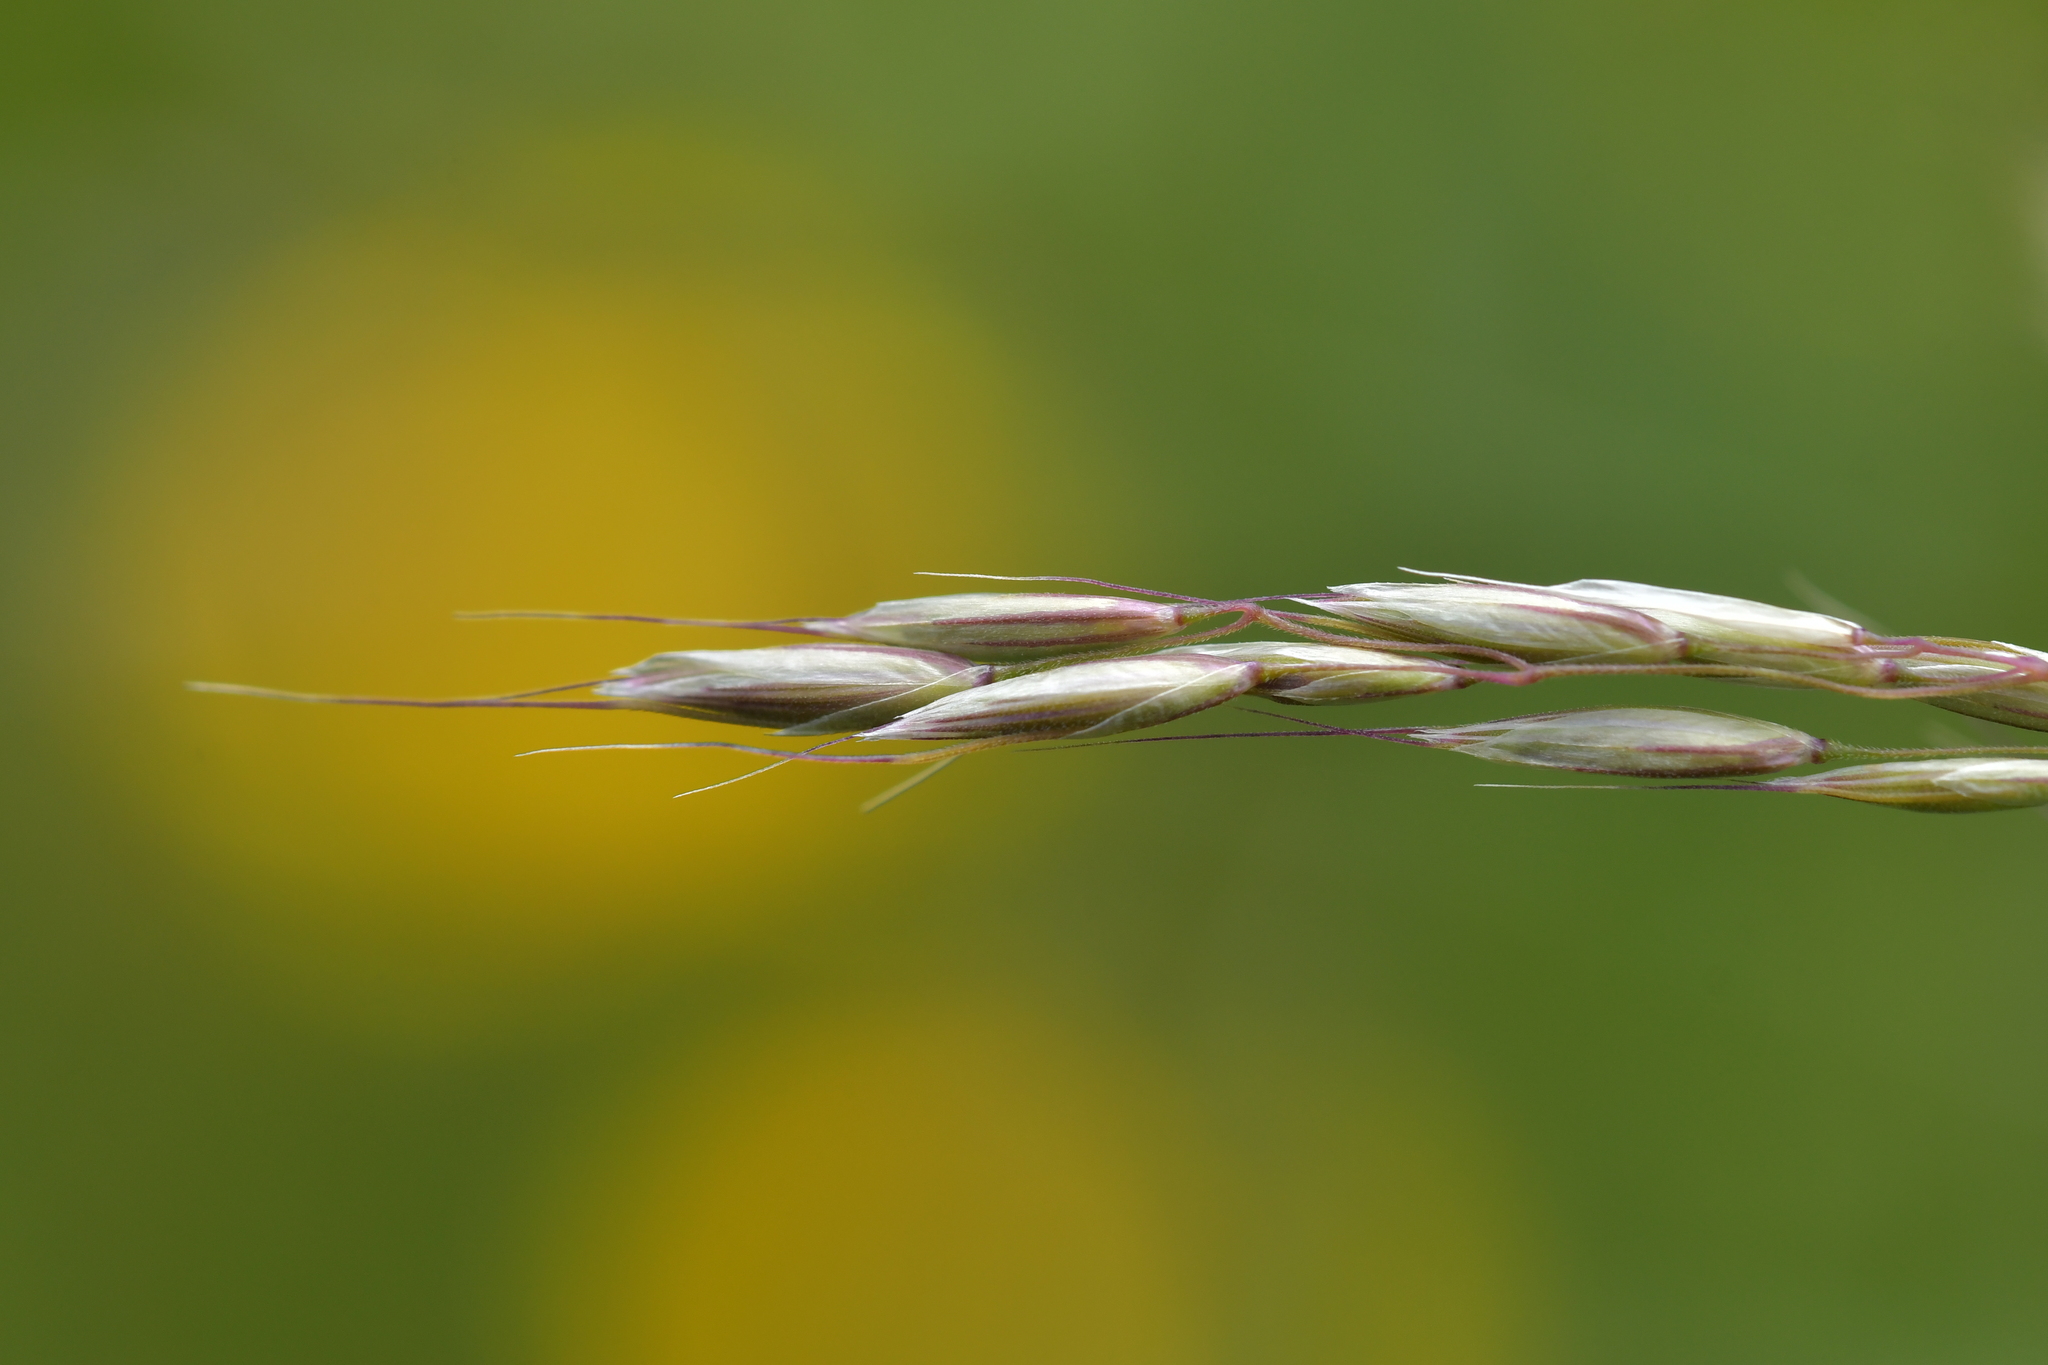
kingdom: Plantae
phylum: Tracheophyta
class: Liliopsida
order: Poales
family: Poaceae
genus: Arrhenatherum
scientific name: Arrhenatherum elatius
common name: Tall oatgrass
